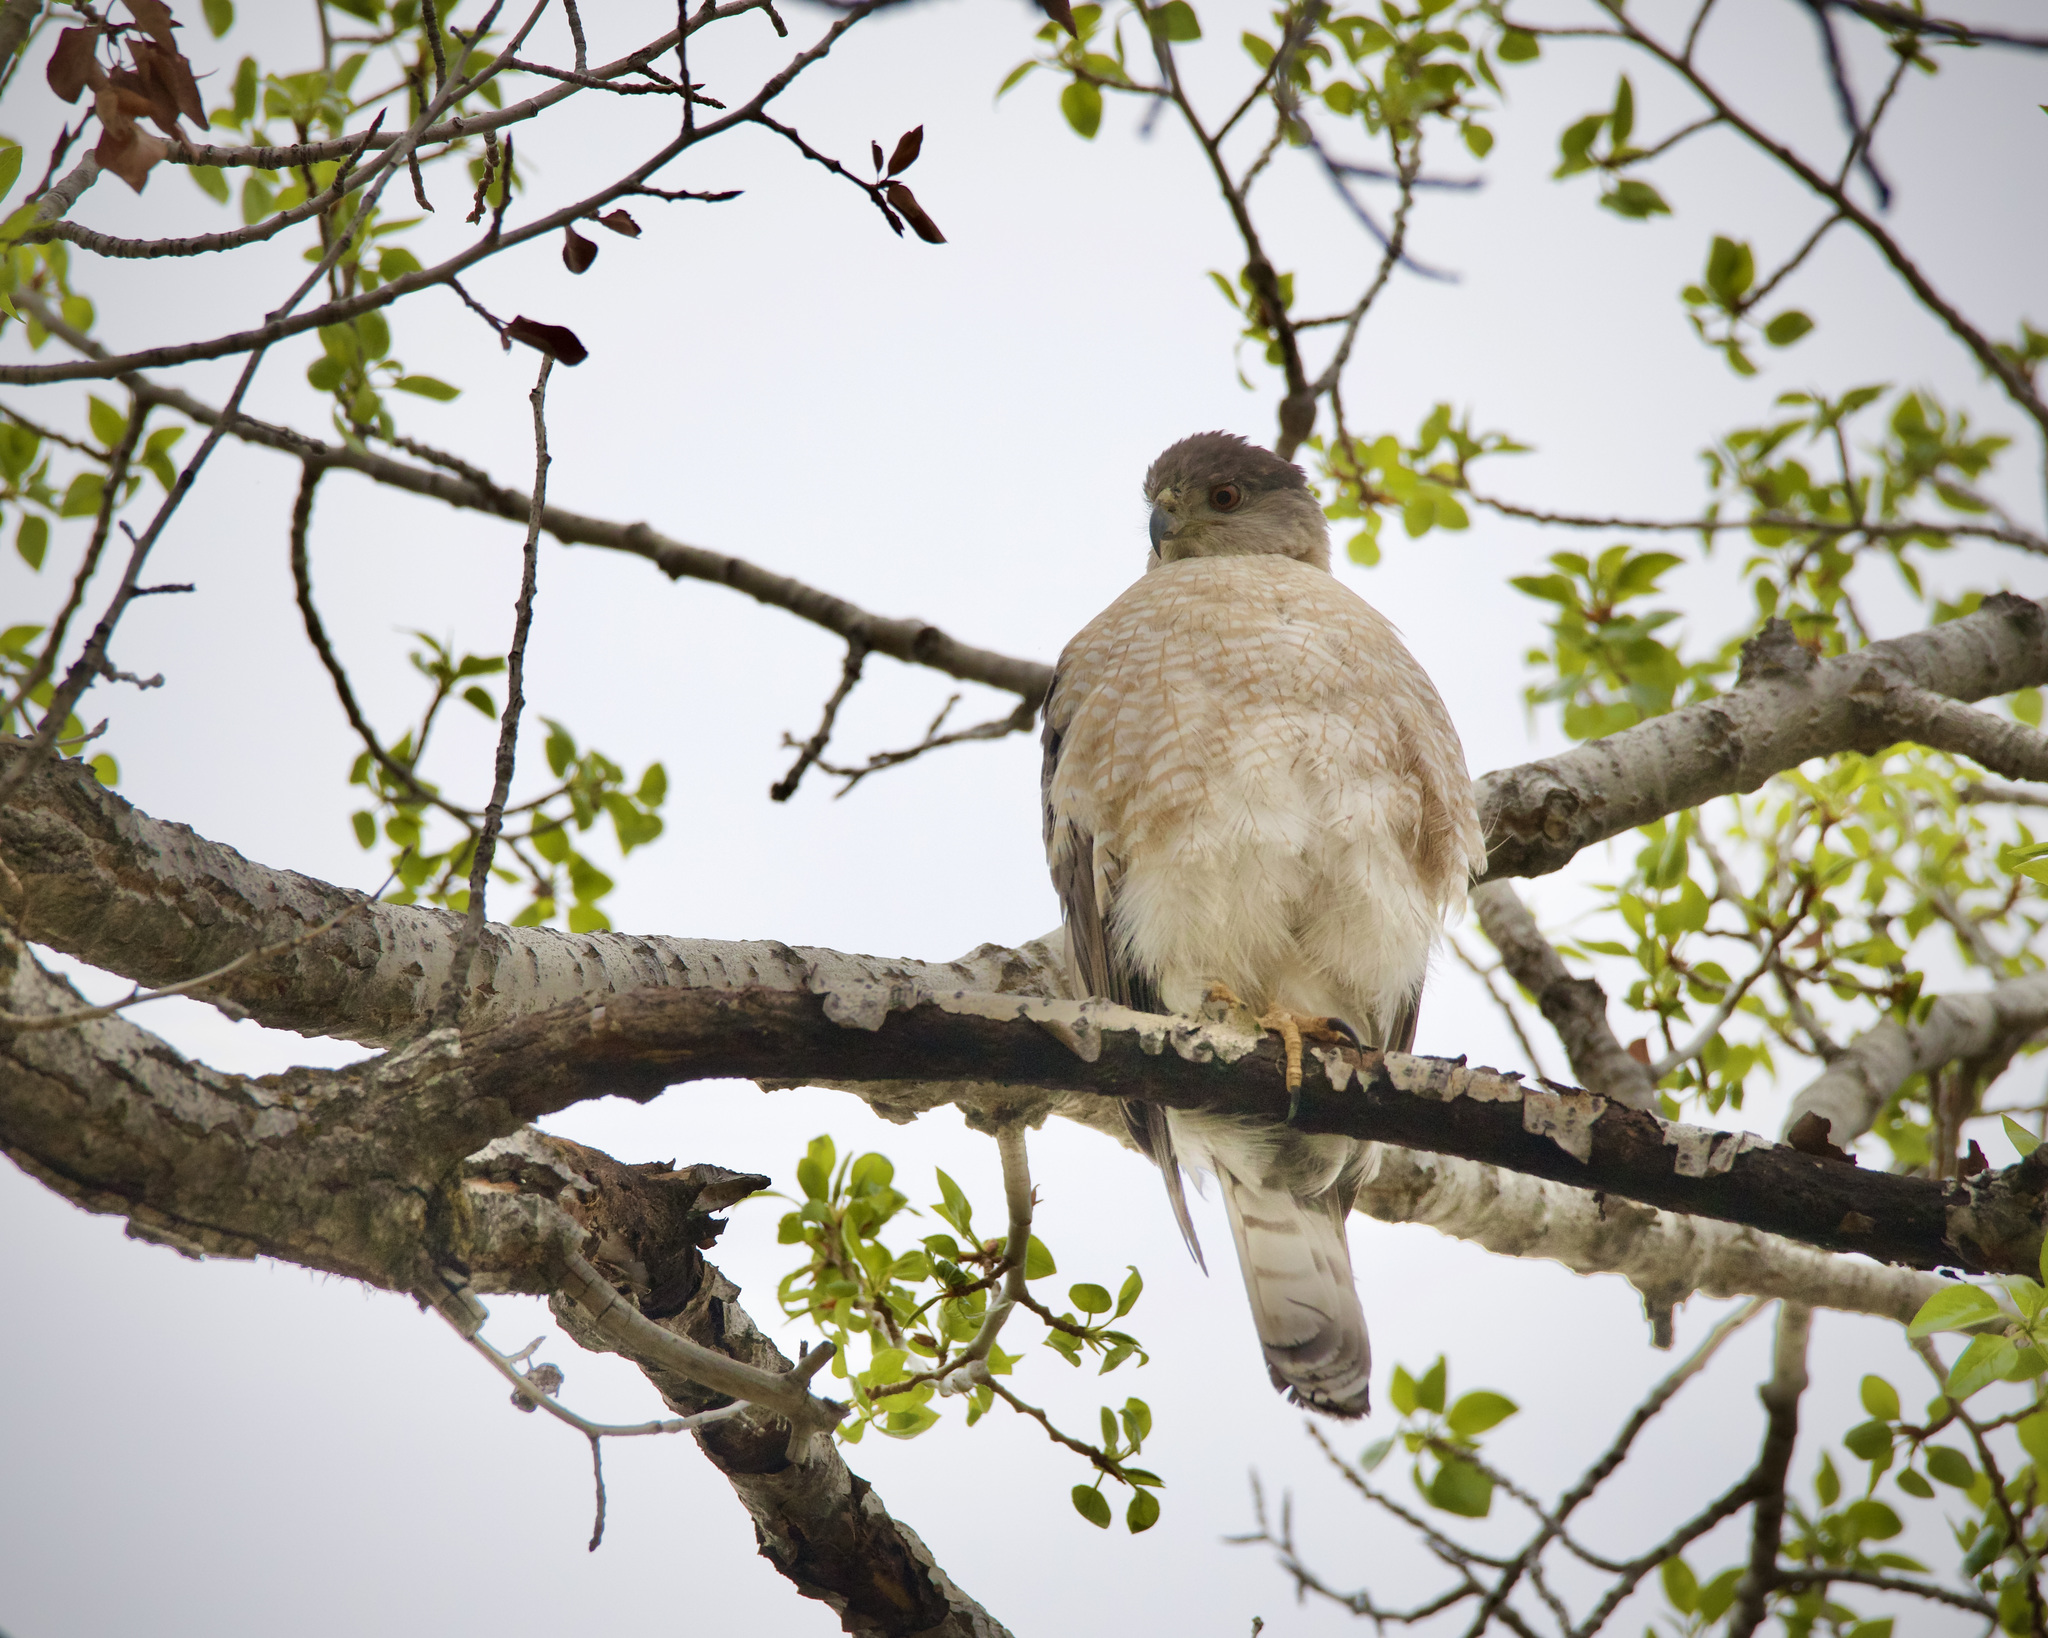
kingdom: Animalia
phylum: Chordata
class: Aves
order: Accipitriformes
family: Accipitridae
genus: Accipiter
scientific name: Accipiter cooperii
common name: Cooper's hawk
